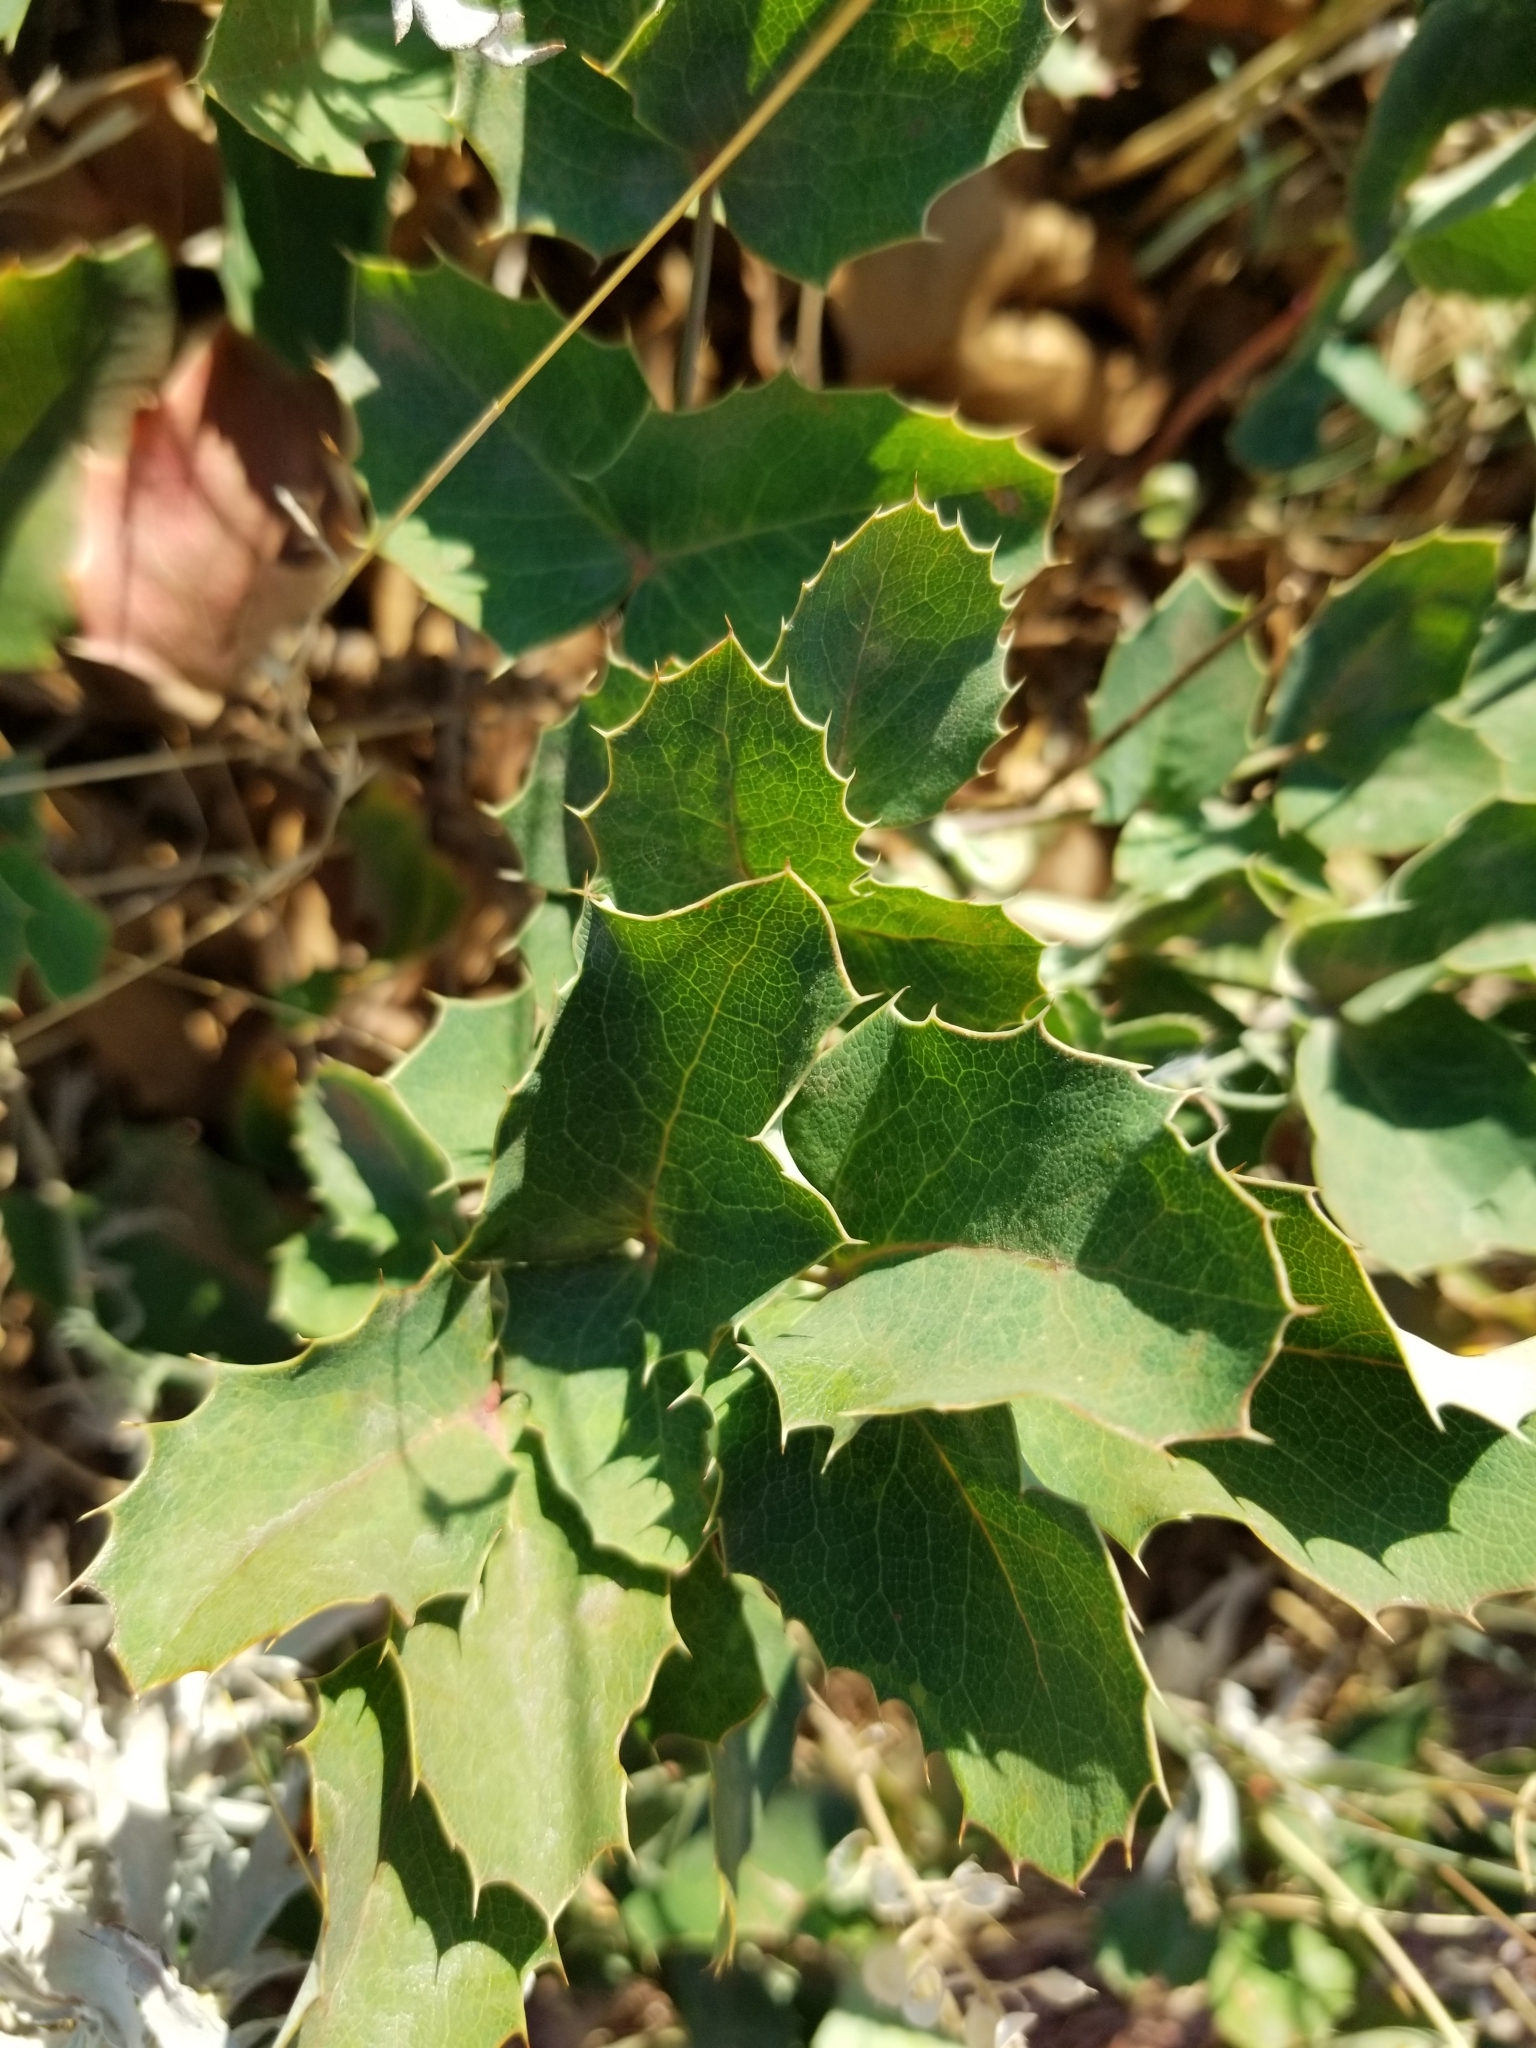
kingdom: Plantae
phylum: Tracheophyta
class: Magnoliopsida
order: Ranunculales
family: Berberidaceae
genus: Mahonia
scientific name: Mahonia repens
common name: Creeping oregon-grape
